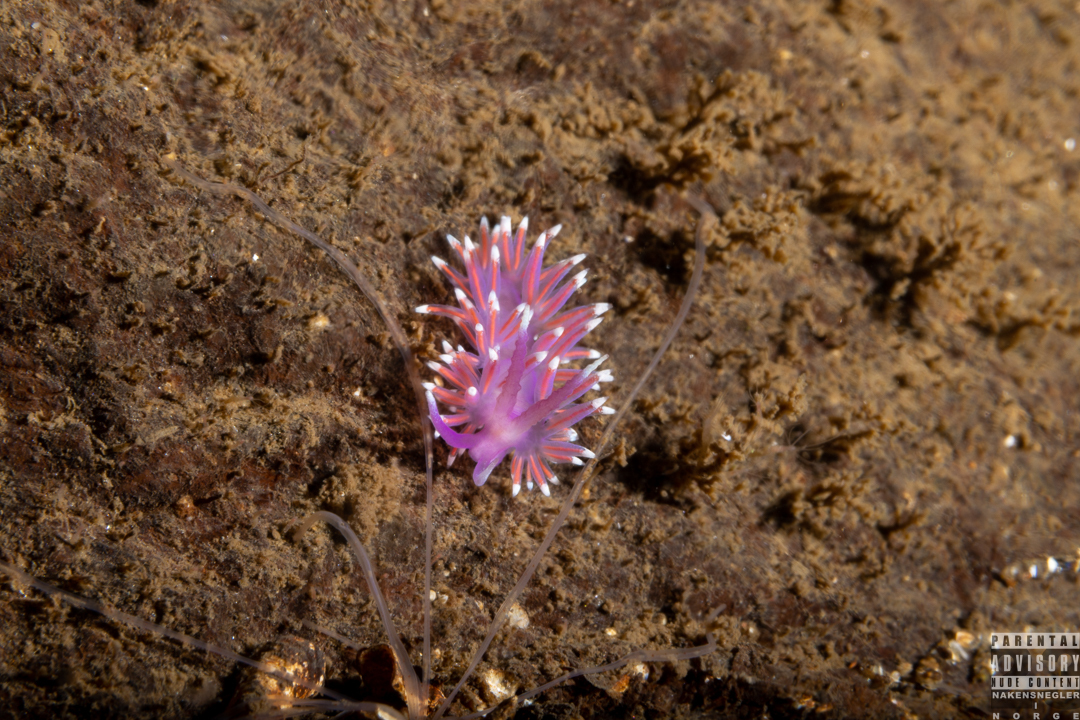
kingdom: Animalia
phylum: Mollusca
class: Gastropoda
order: Nudibranchia
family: Flabellinidae
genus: Edmundsella
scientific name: Edmundsella pedata
